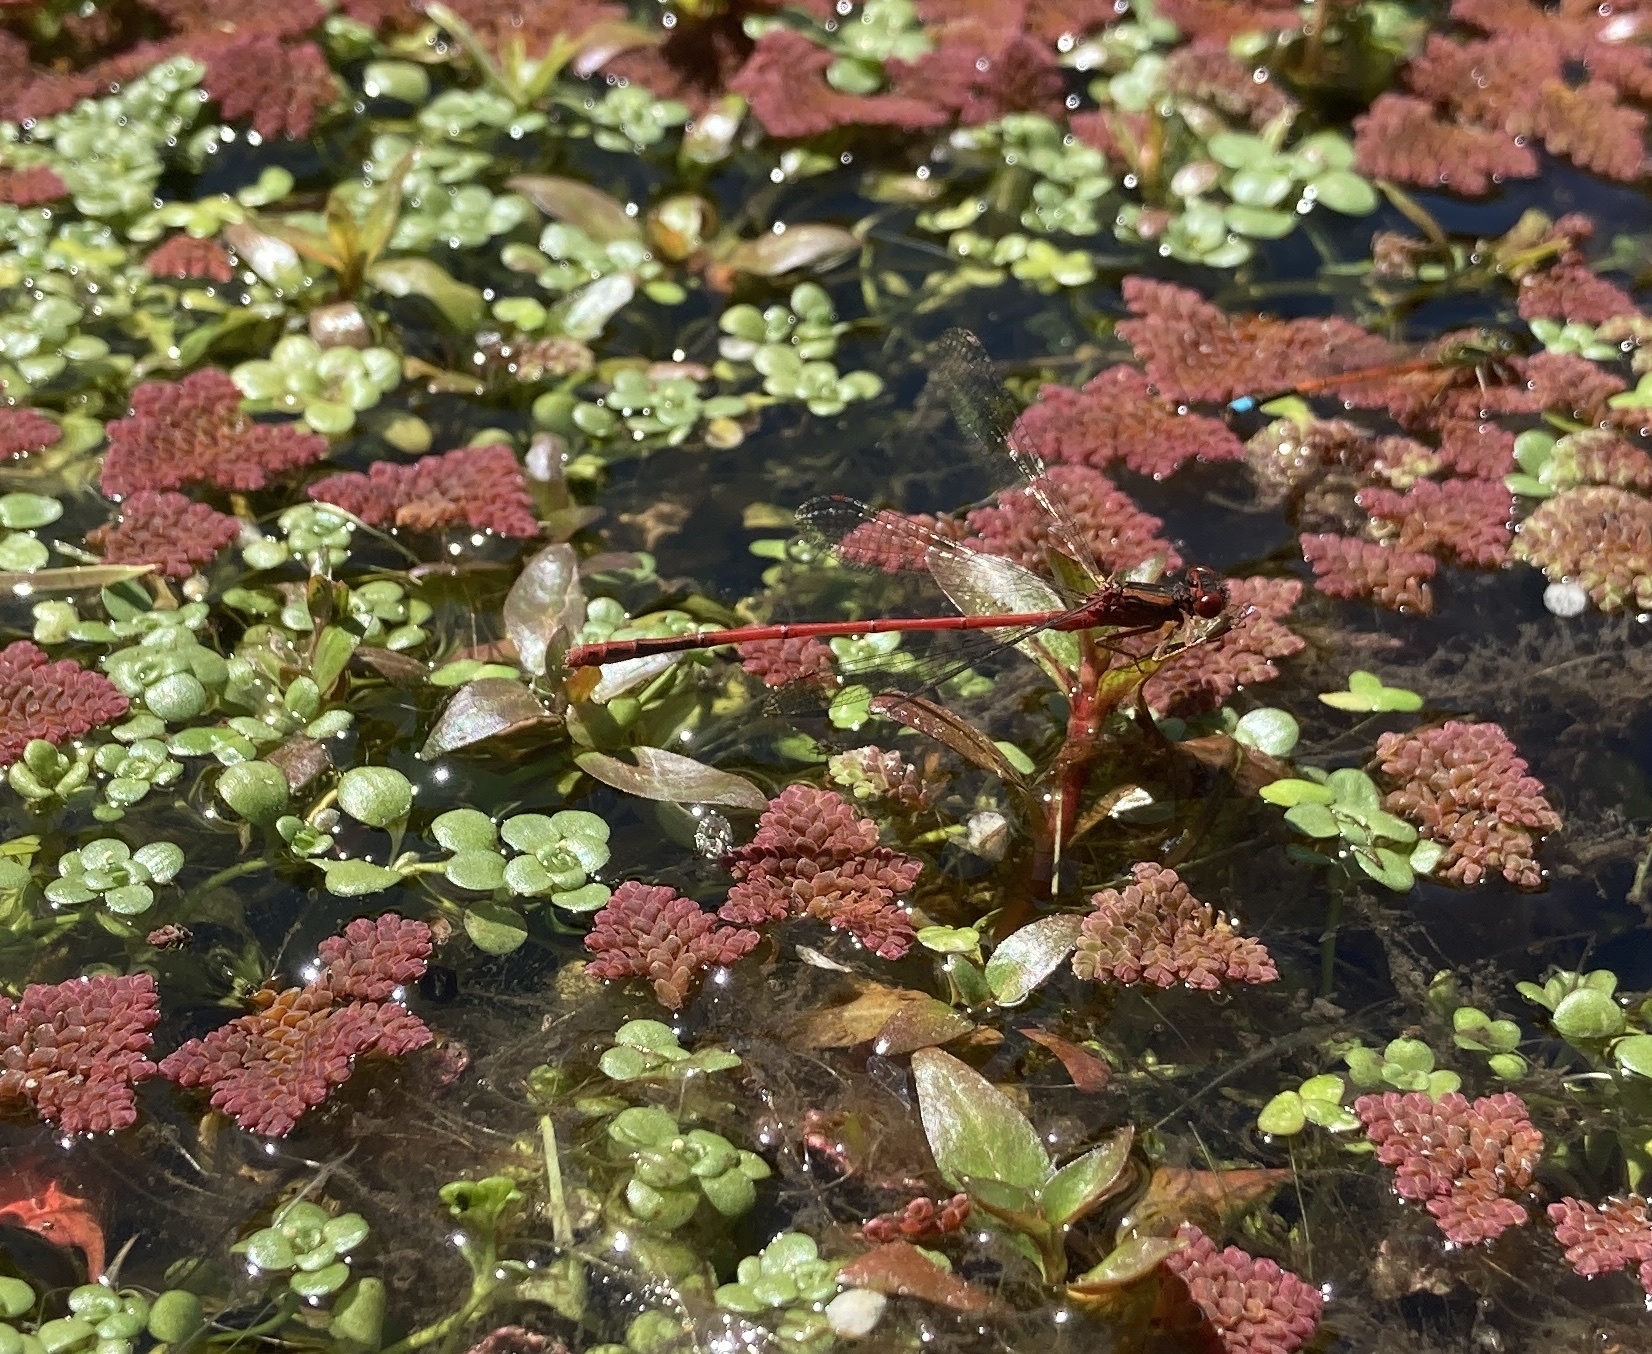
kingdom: Animalia
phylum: Arthropoda
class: Insecta
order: Odonata
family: Coenagrionidae
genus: Xanthocnemis
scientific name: Xanthocnemis zealandica
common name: Common redcoat damselfly
